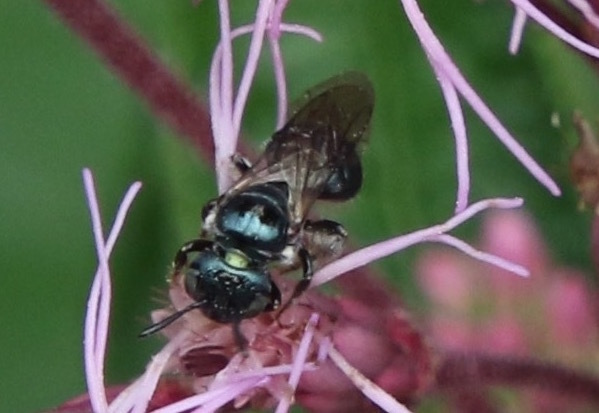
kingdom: Animalia
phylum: Arthropoda
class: Insecta
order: Hymenoptera
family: Apidae
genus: Zadontomerus
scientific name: Zadontomerus
